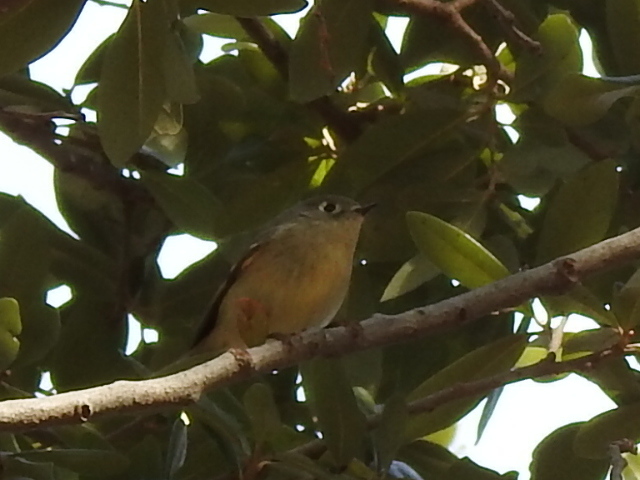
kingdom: Animalia
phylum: Chordata
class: Aves
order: Passeriformes
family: Regulidae
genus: Regulus
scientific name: Regulus calendula
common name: Ruby-crowned kinglet
